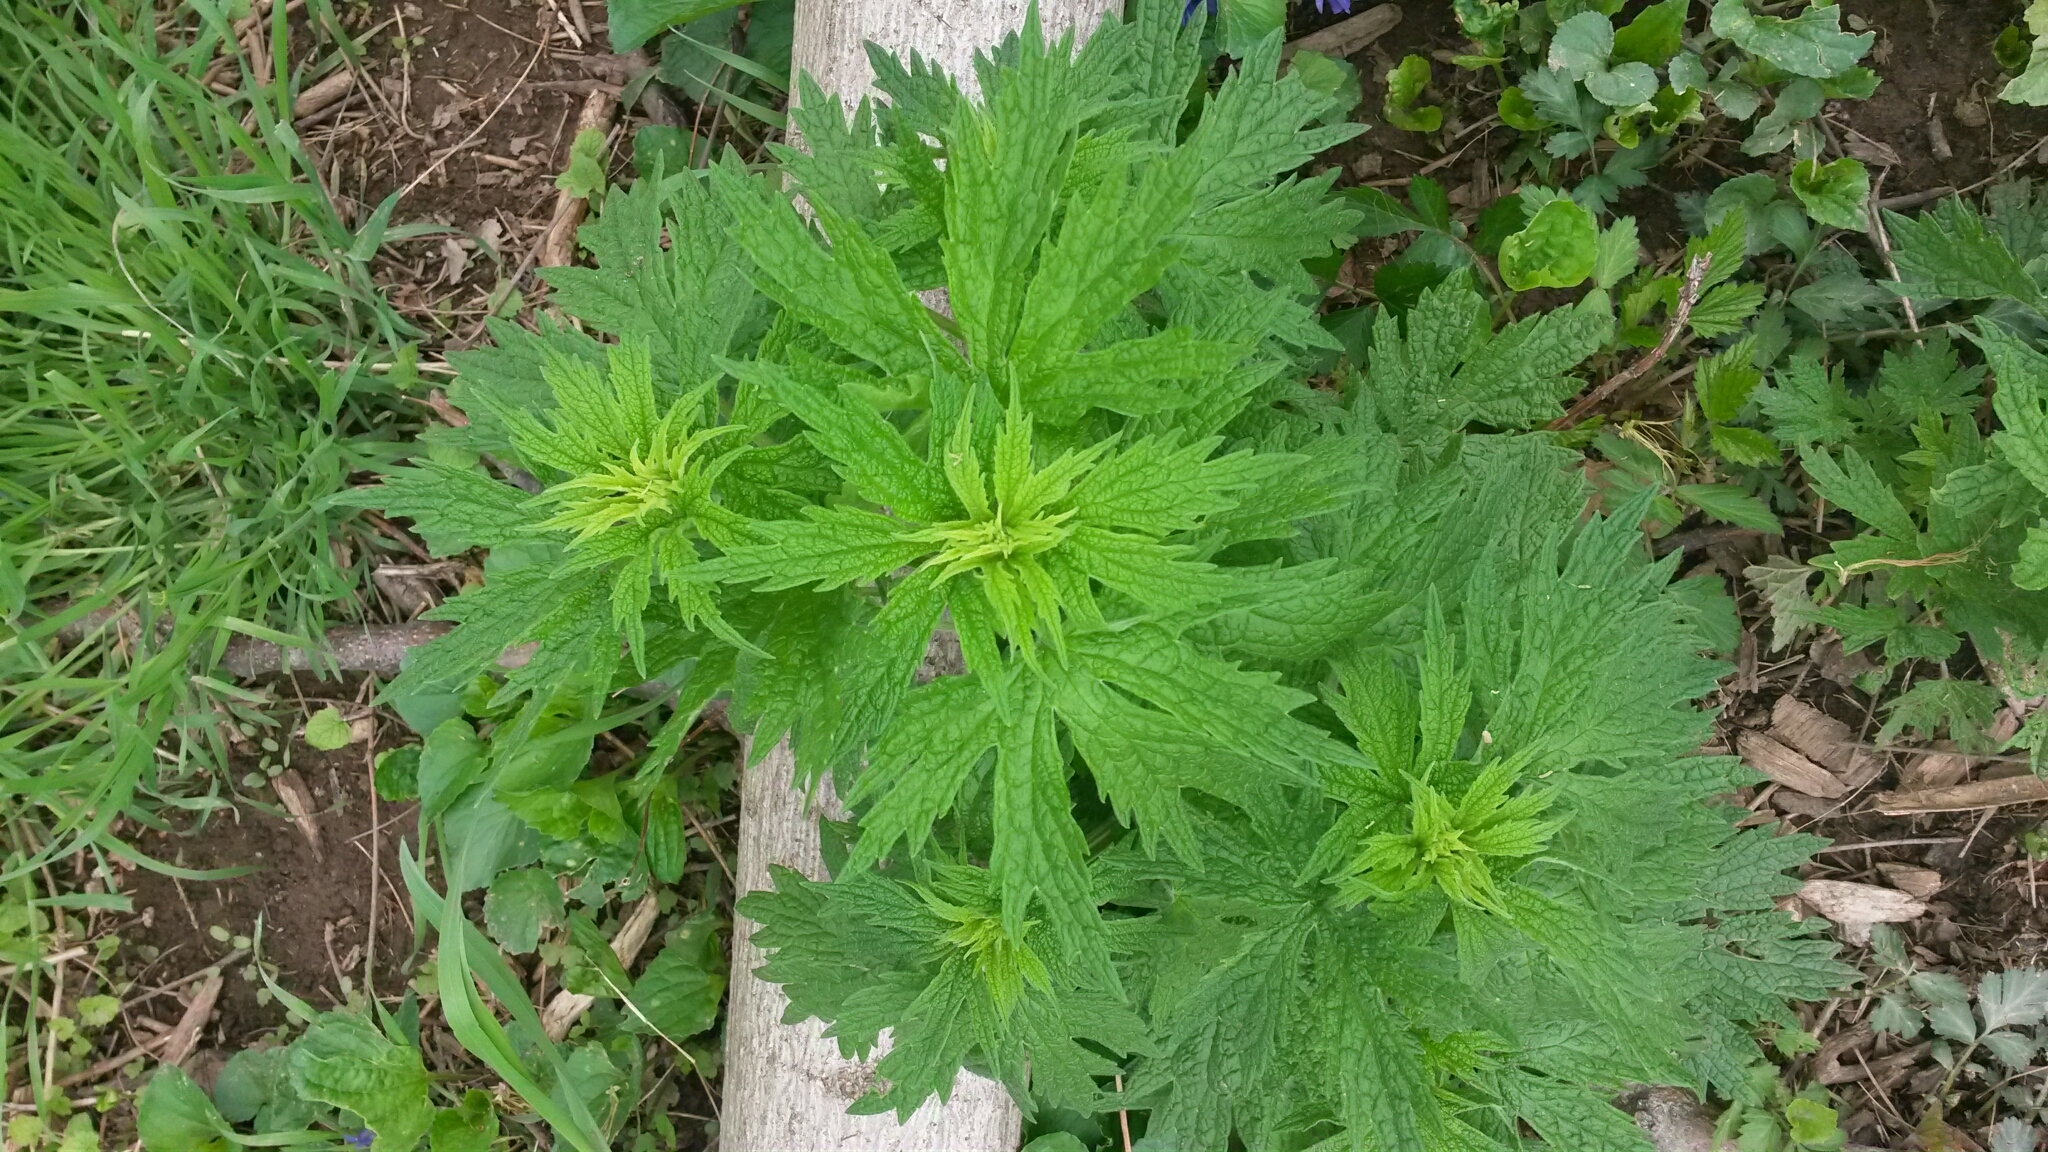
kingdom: Plantae
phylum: Tracheophyta
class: Magnoliopsida
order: Lamiales
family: Lamiaceae
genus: Leonurus
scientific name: Leonurus cardiaca
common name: Motherwort
